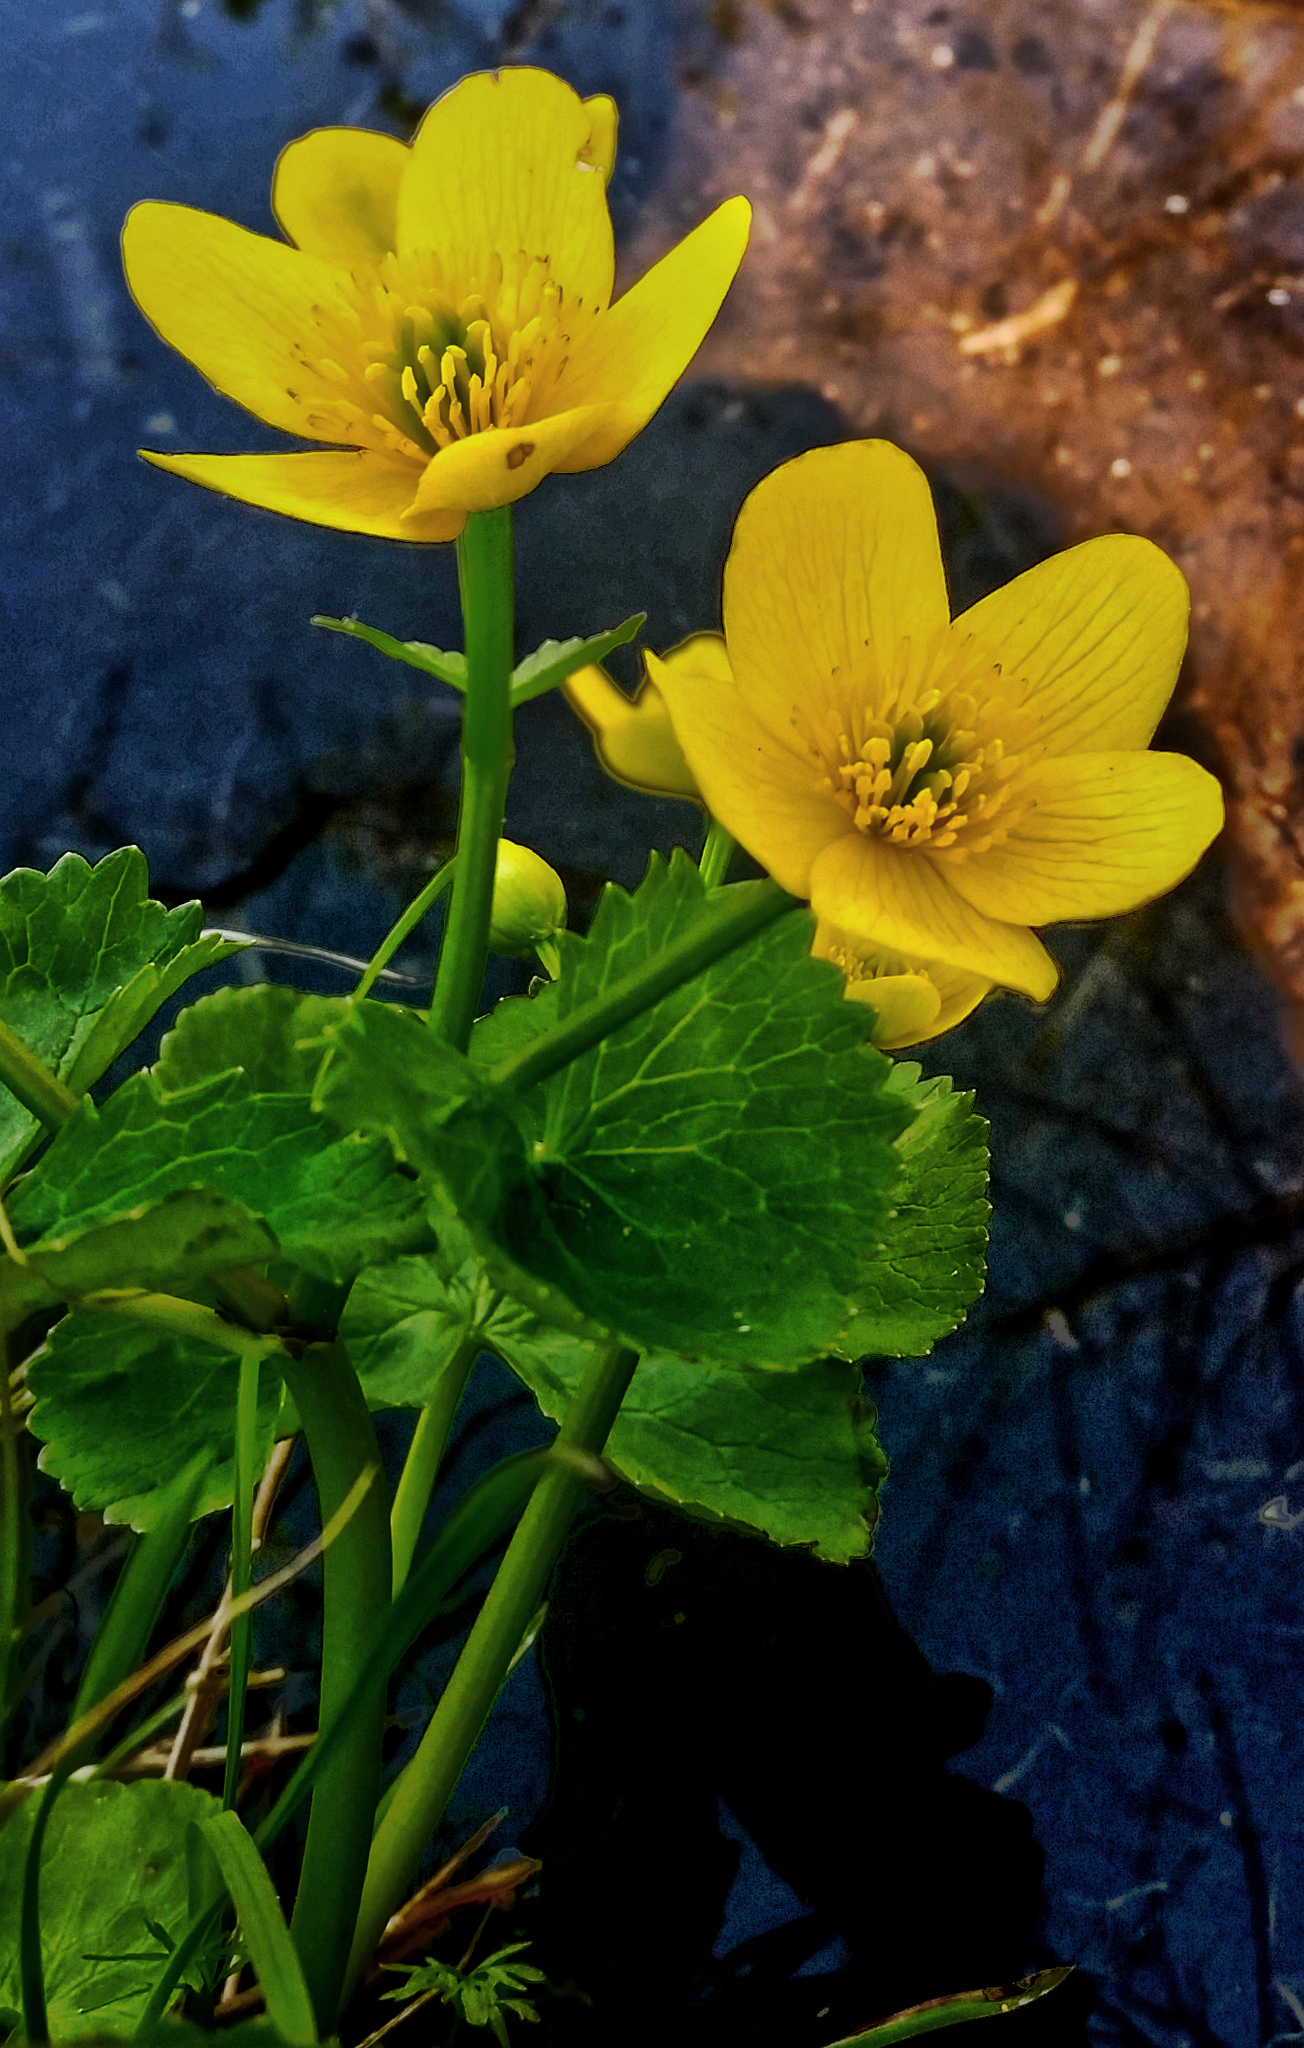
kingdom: Plantae
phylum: Tracheophyta
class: Magnoliopsida
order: Ranunculales
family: Ranunculaceae
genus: Caltha
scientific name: Caltha palustris
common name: Marsh marigold
